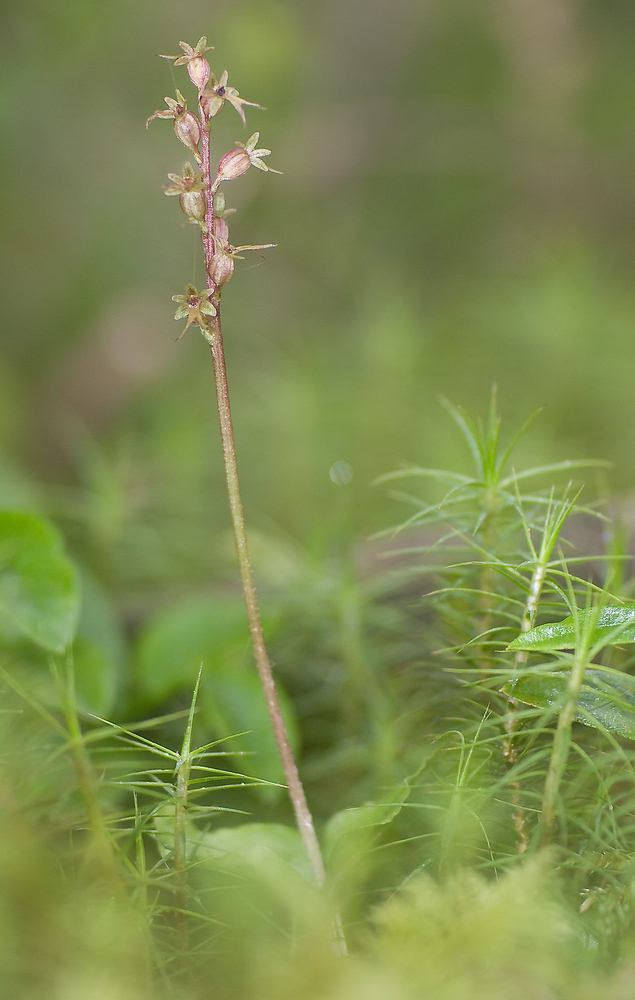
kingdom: Plantae
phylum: Tracheophyta
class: Liliopsida
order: Asparagales
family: Orchidaceae
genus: Neottia
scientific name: Neottia cordata
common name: Lesser twayblade
